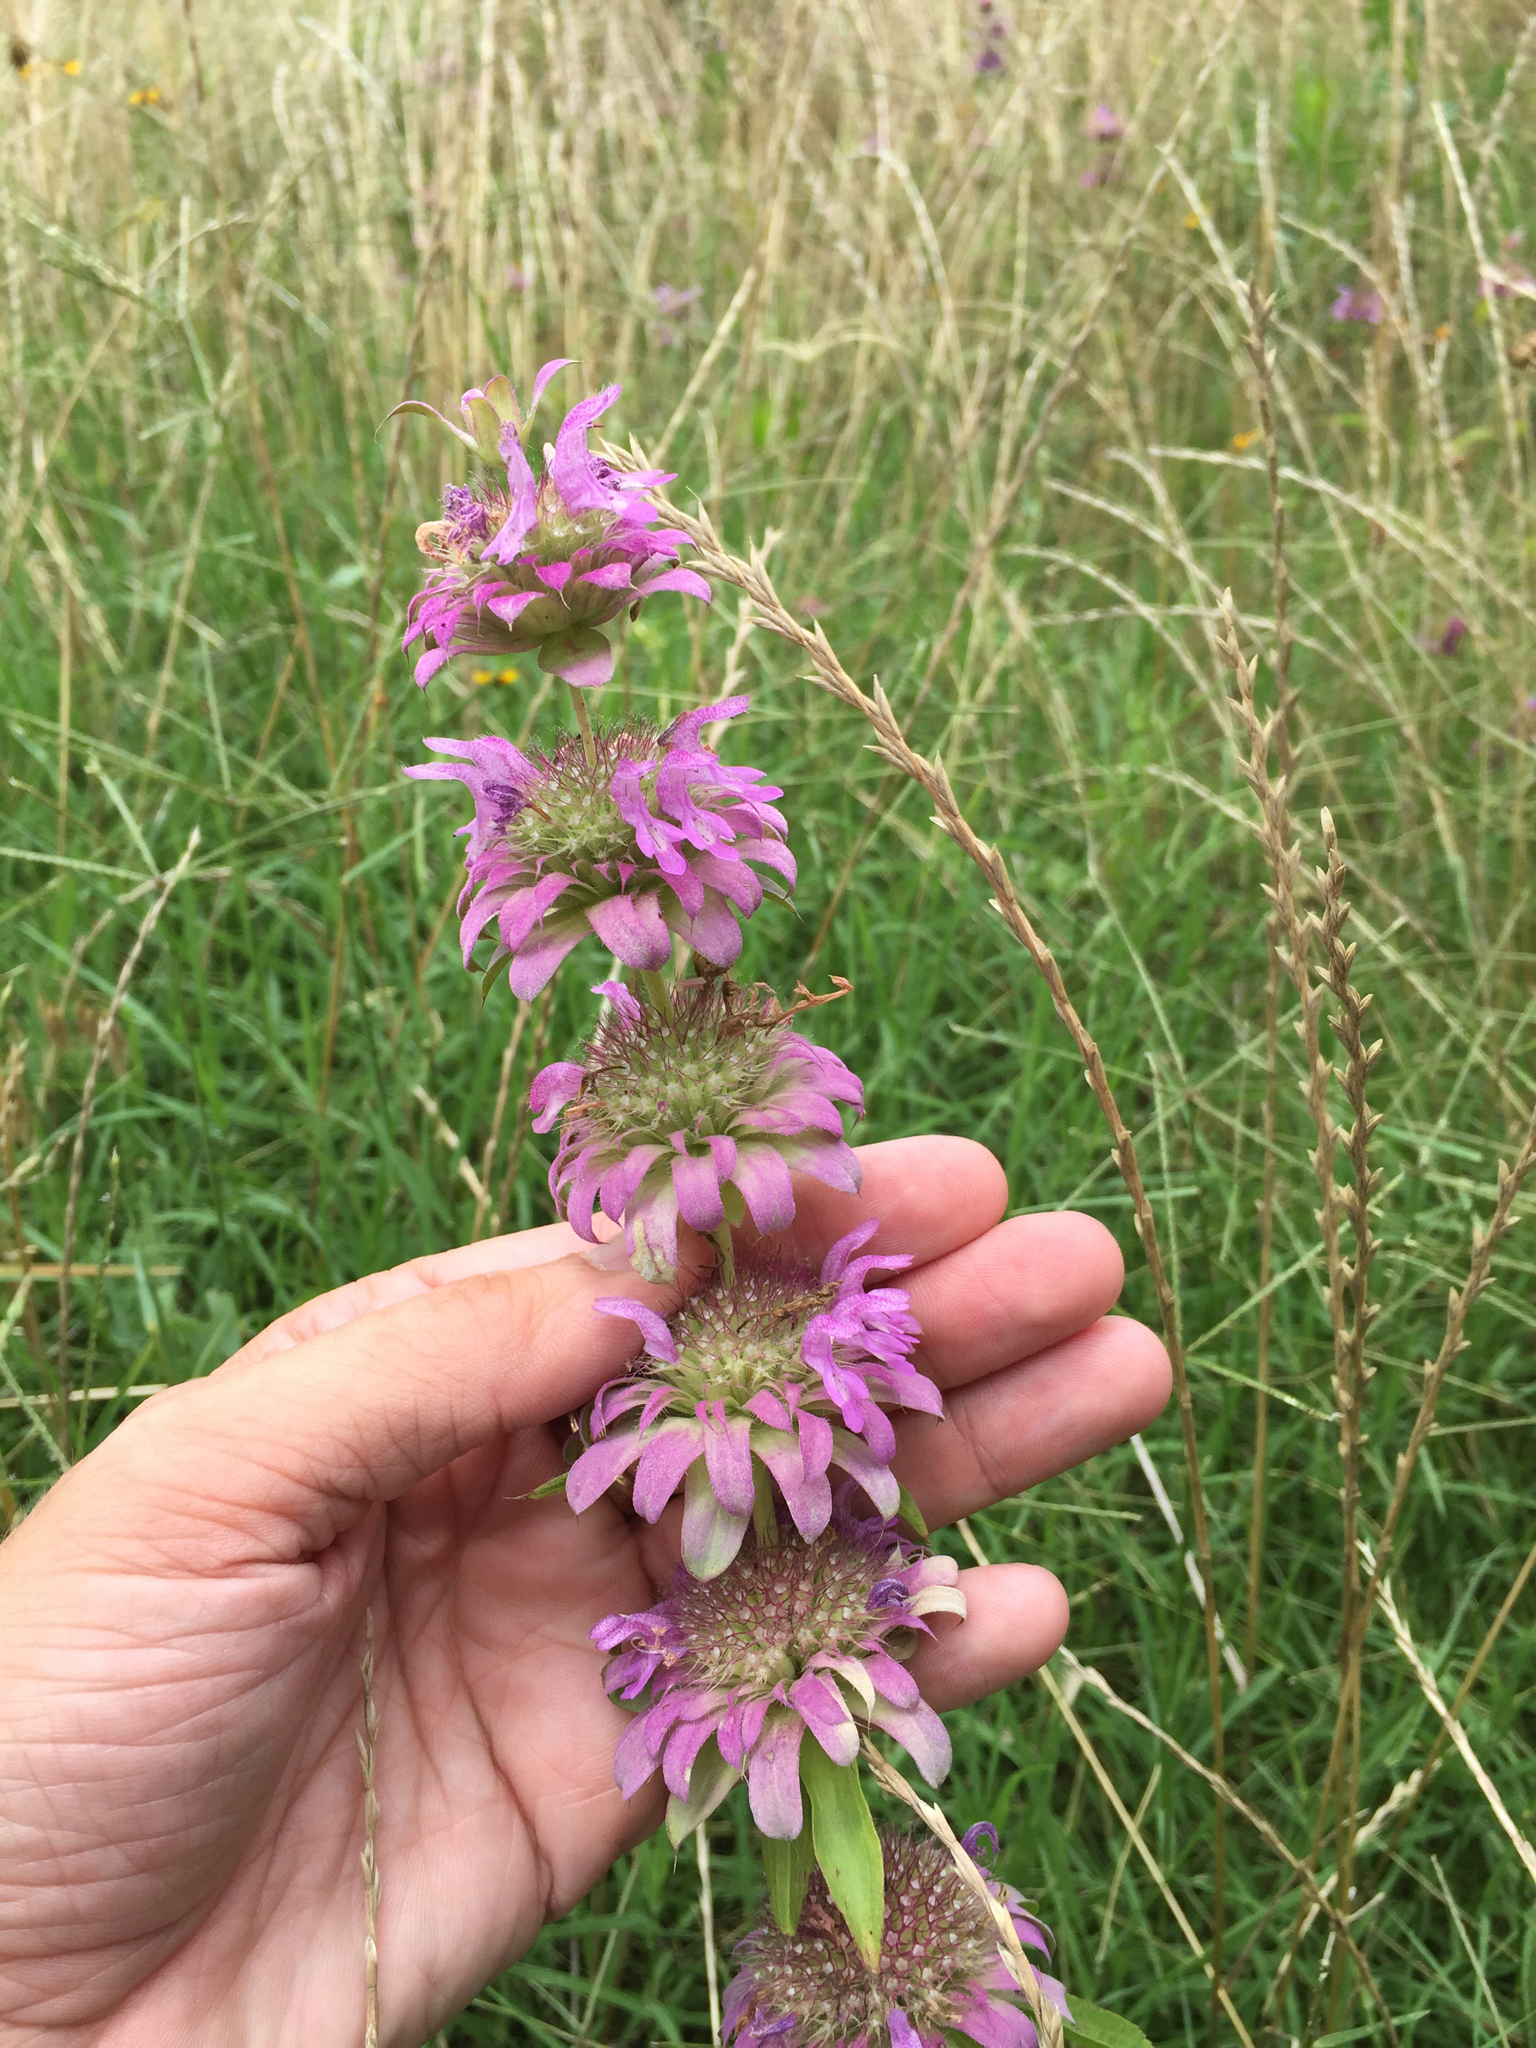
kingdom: Plantae
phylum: Tracheophyta
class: Magnoliopsida
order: Lamiales
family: Lamiaceae
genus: Monarda
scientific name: Monarda citriodora
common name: Lemon beebalm
